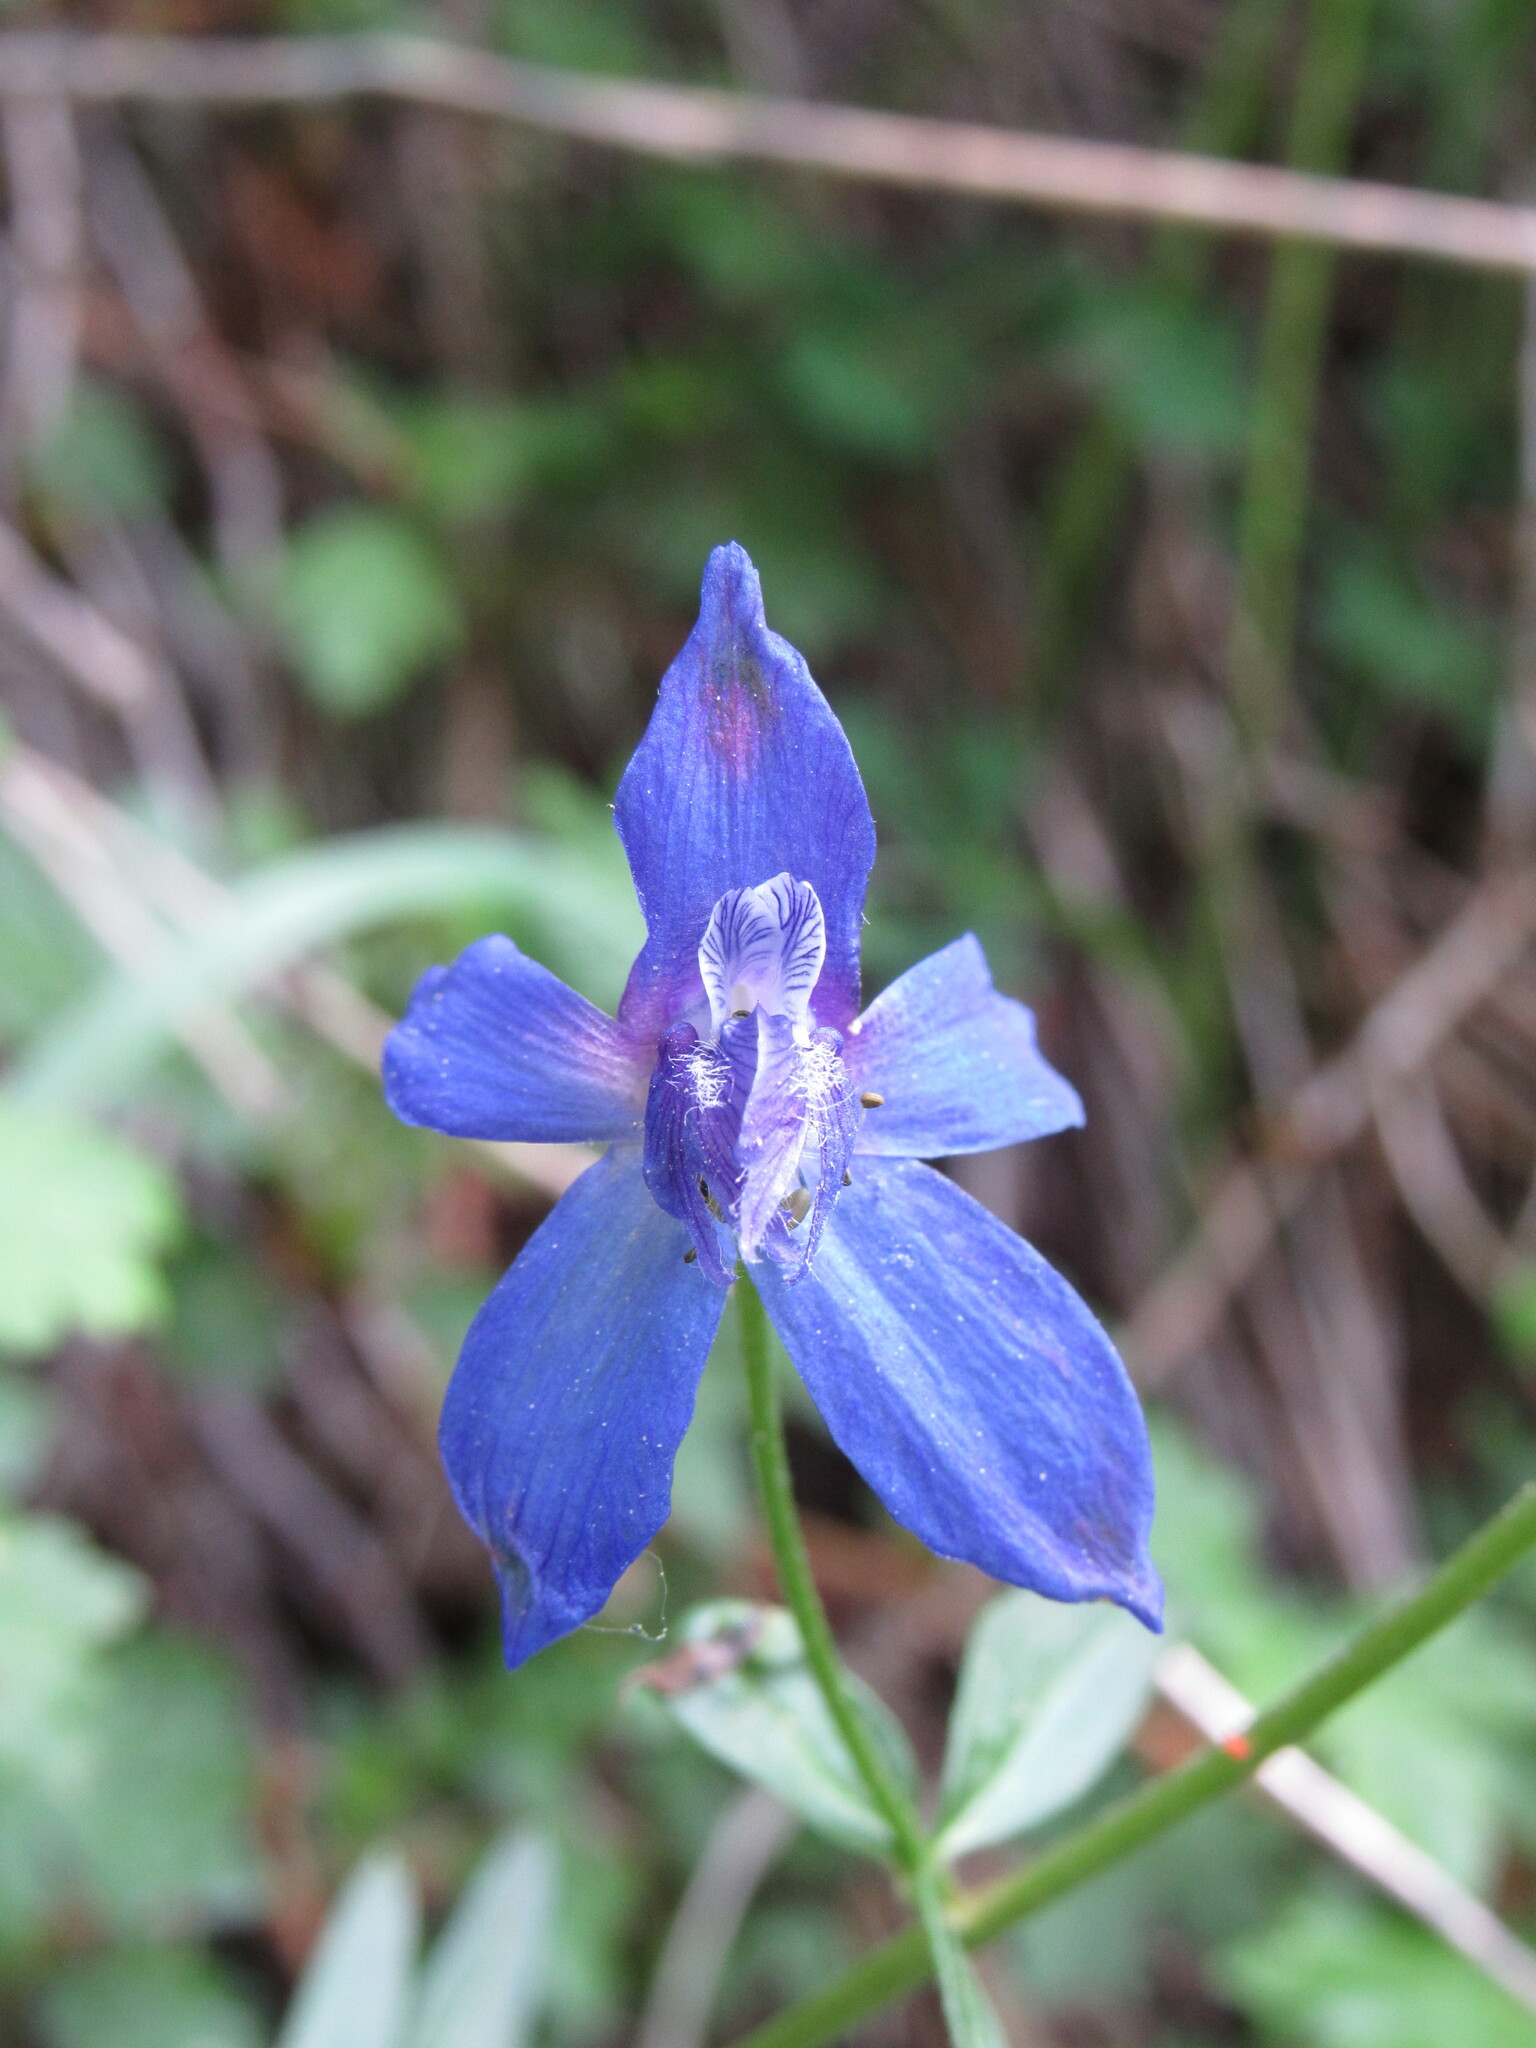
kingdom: Plantae
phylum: Tracheophyta
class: Magnoliopsida
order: Ranunculales
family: Ranunculaceae
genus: Delphinium
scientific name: Delphinium nuttallianum
